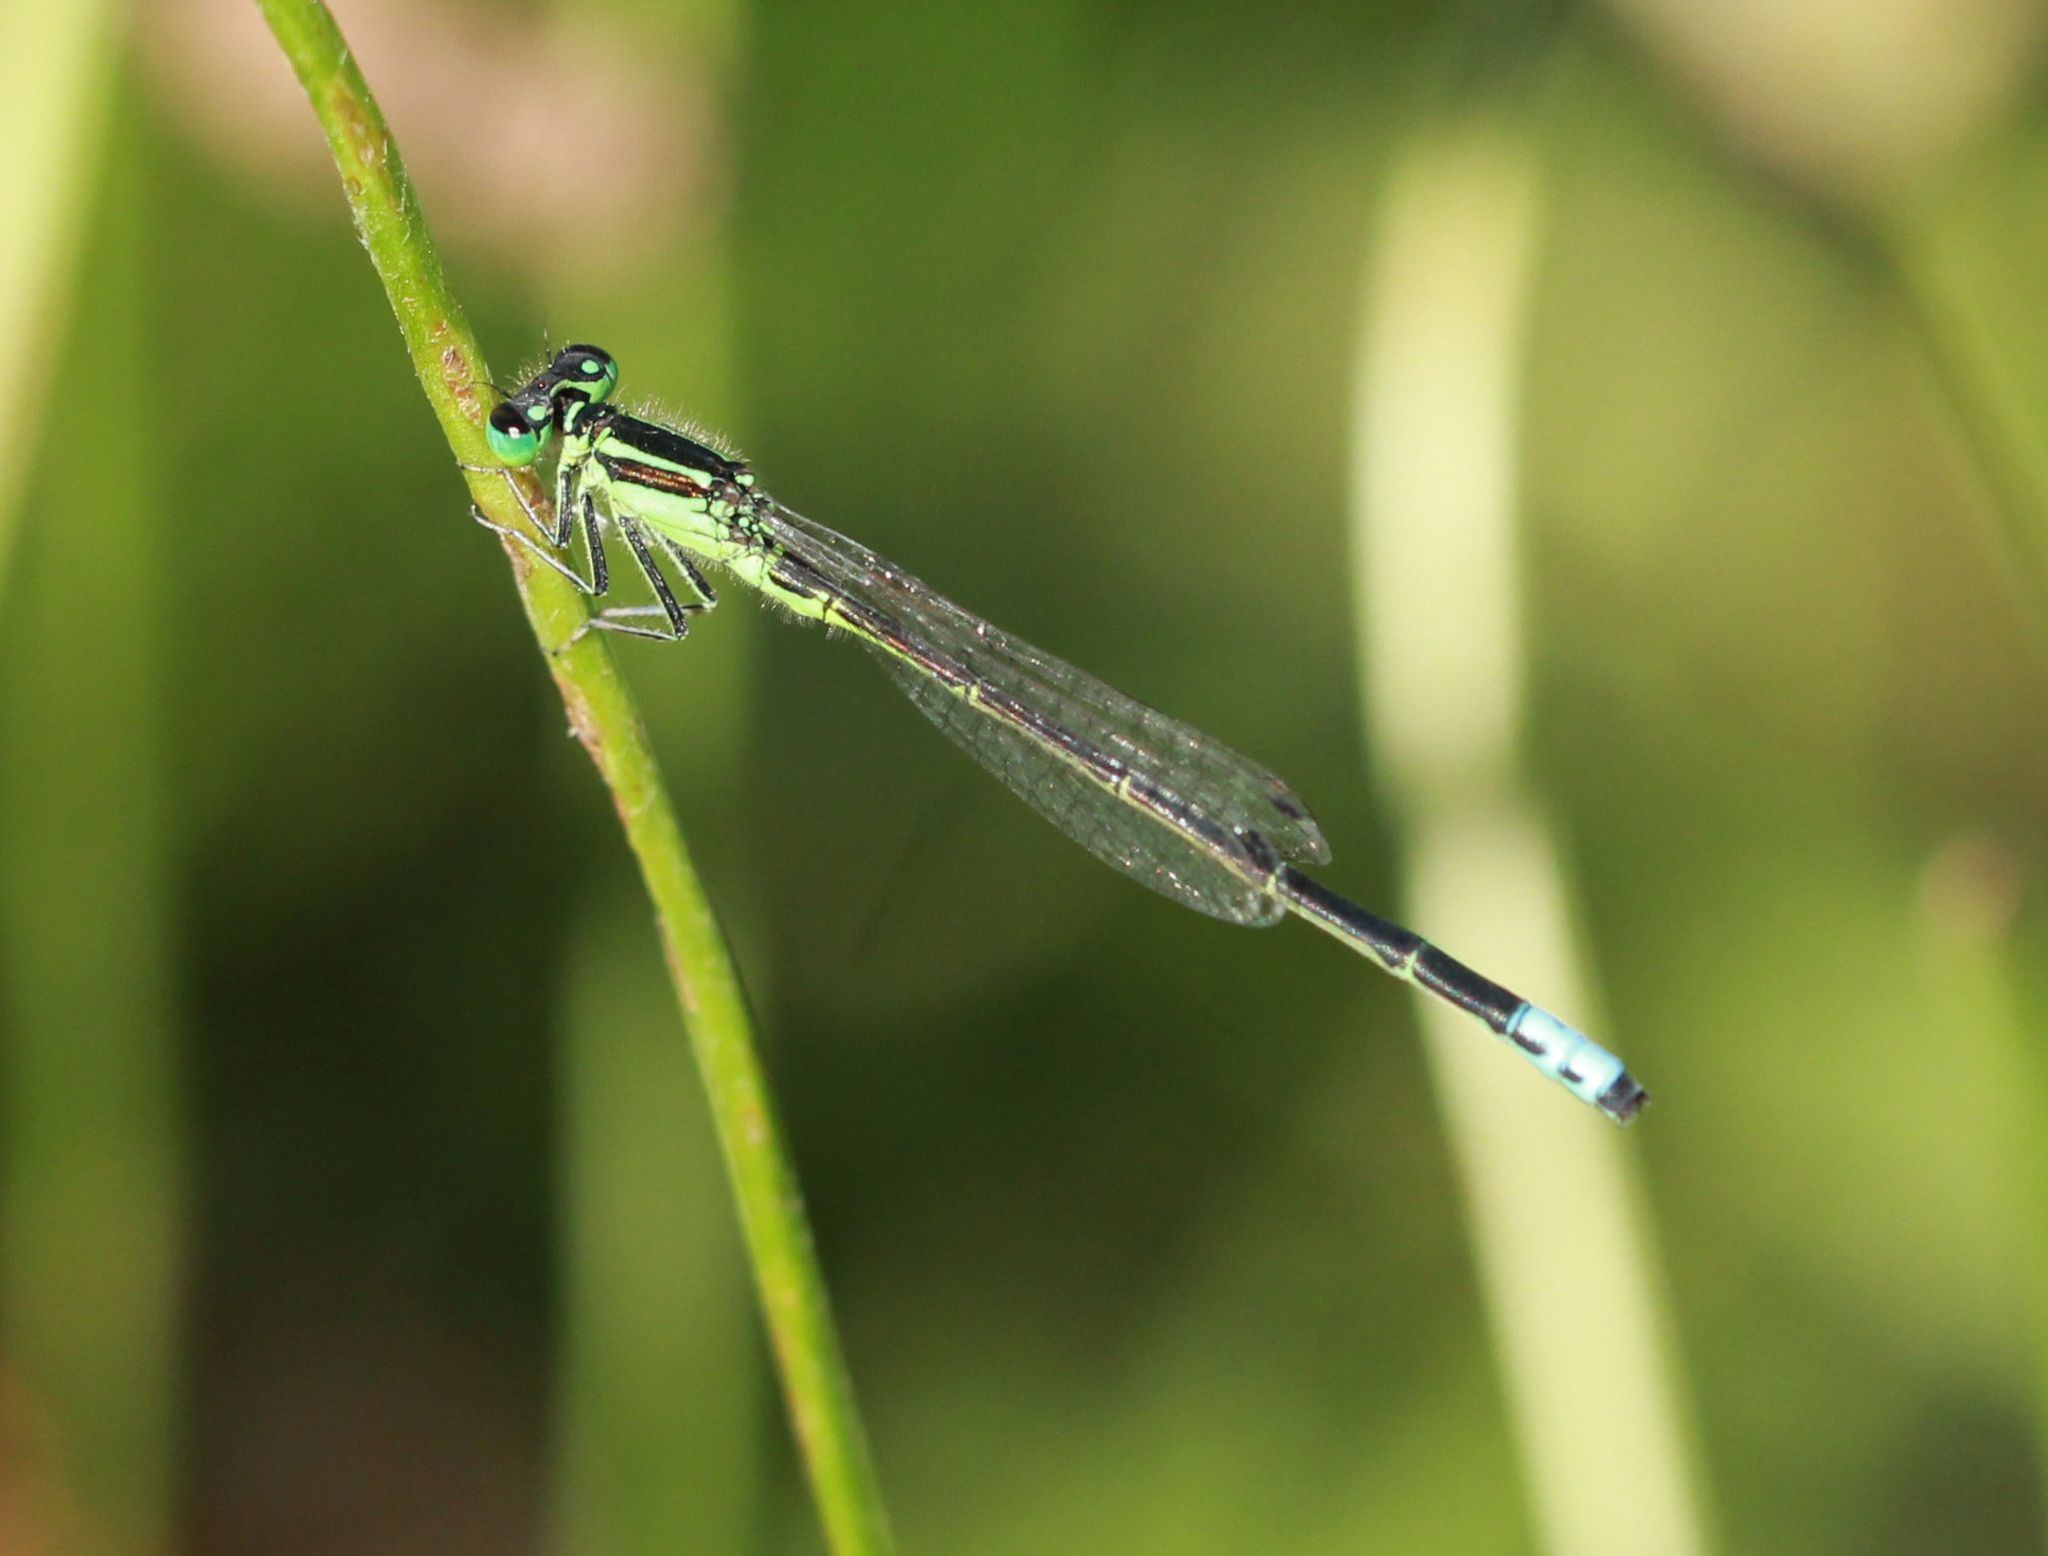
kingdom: Animalia
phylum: Arthropoda
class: Insecta
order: Odonata
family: Coenagrionidae
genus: Ischnura
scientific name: Ischnura verticalis
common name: Eastern forktail
